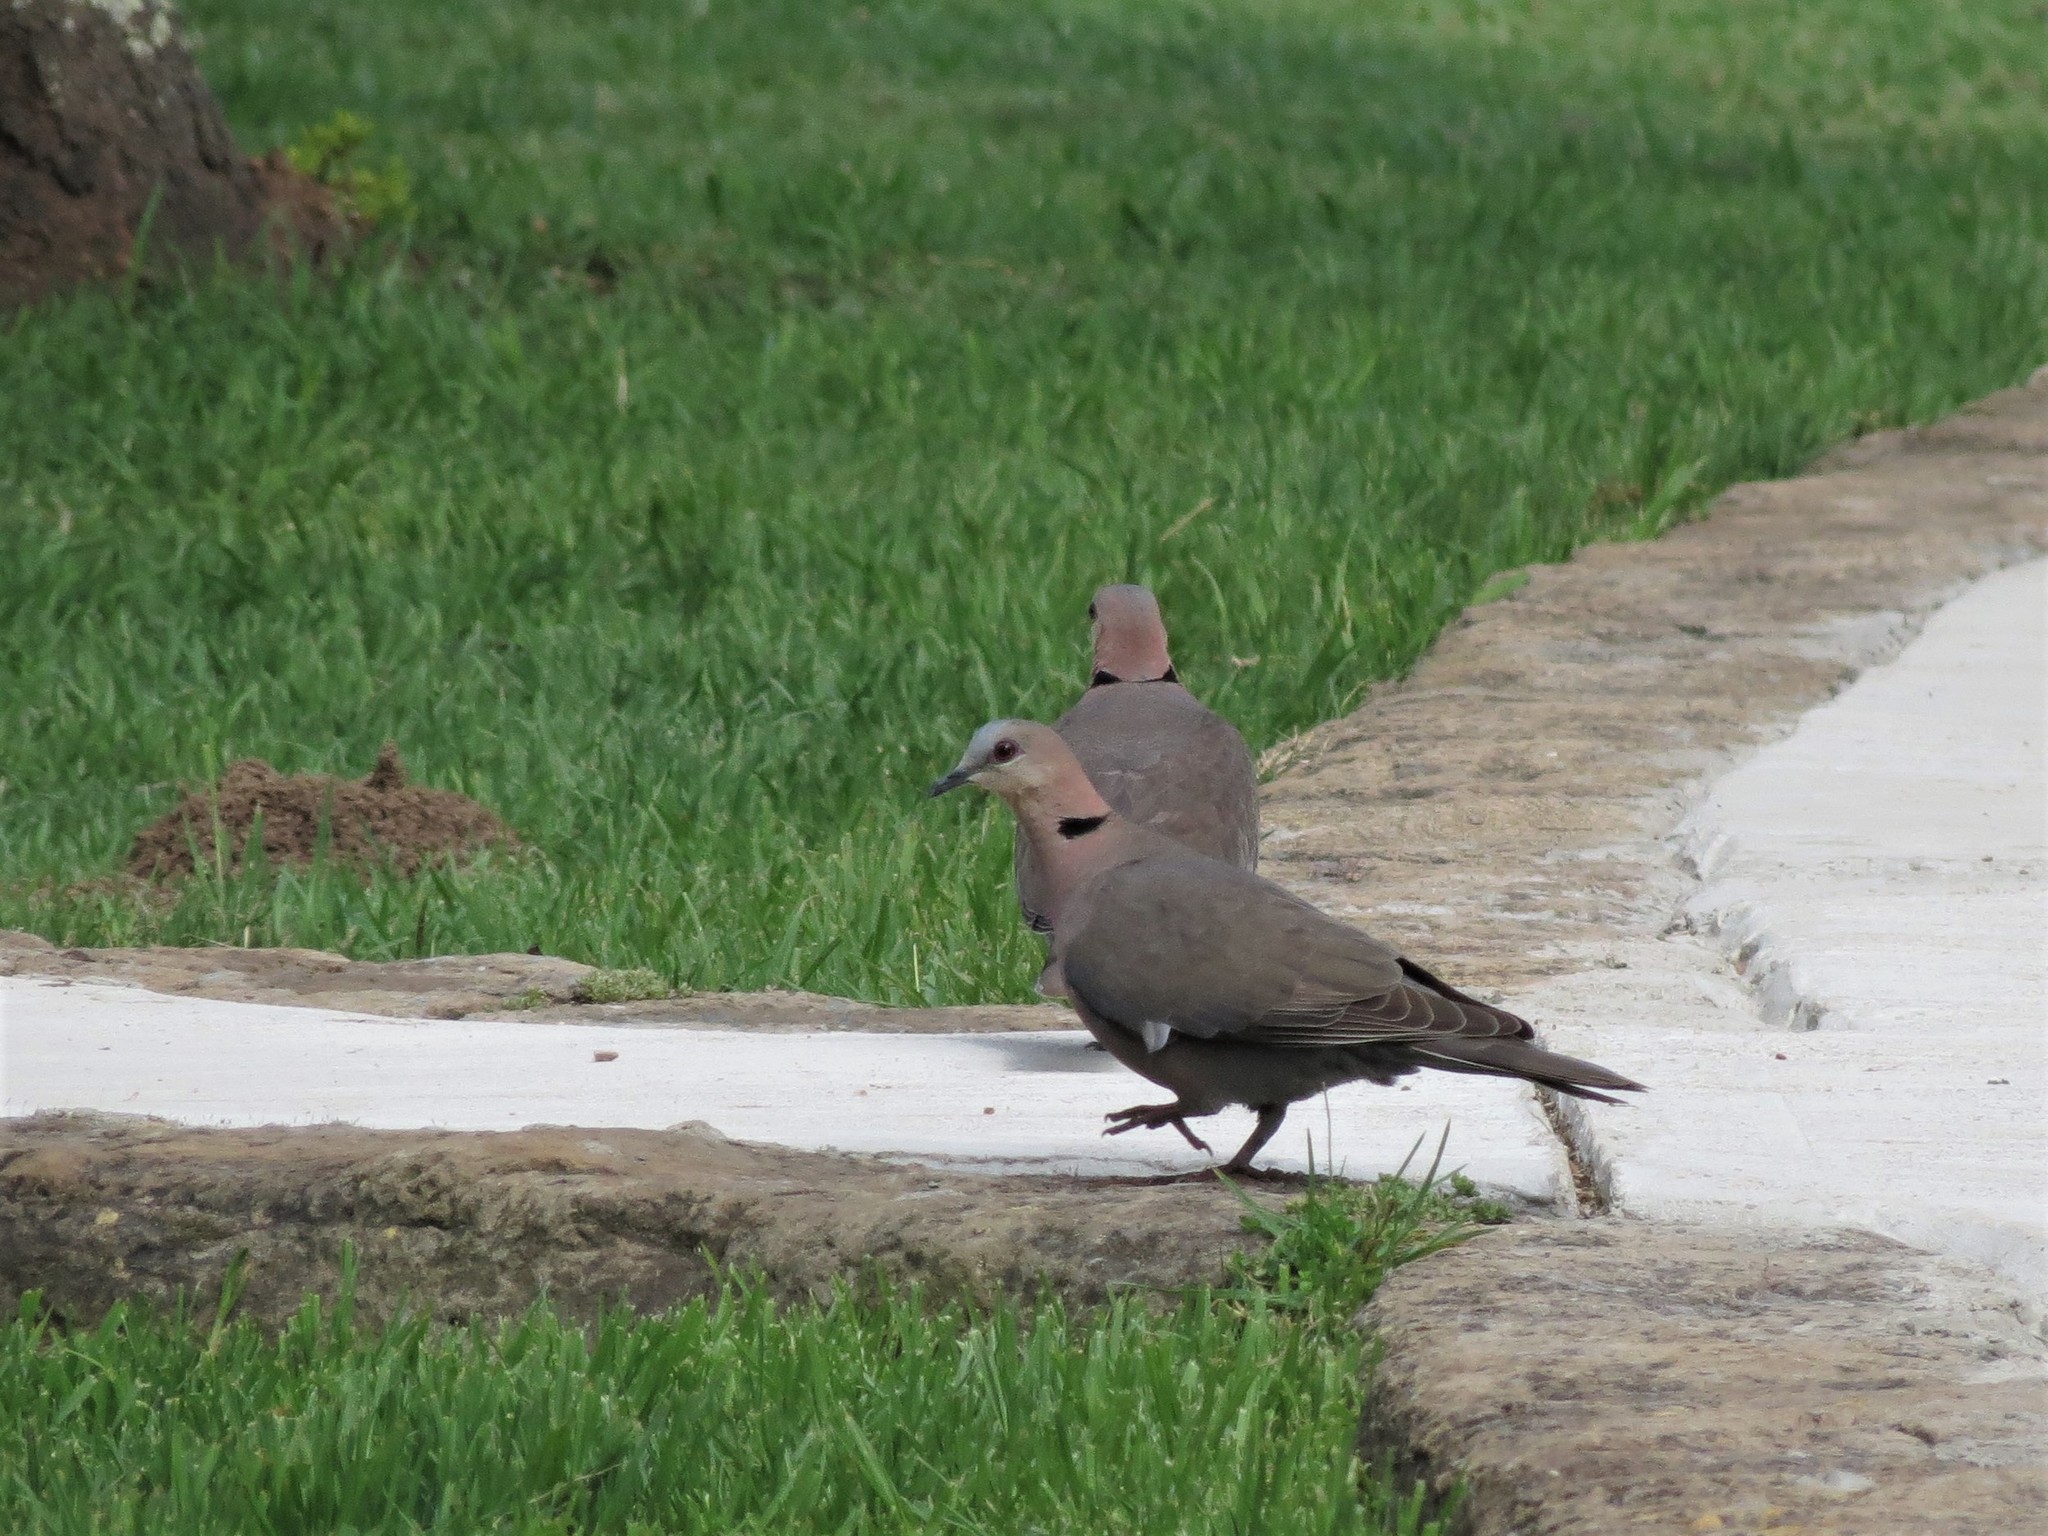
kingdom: Animalia
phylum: Chordata
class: Aves
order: Columbiformes
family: Columbidae
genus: Streptopelia
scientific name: Streptopelia semitorquata
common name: Red-eyed dove
